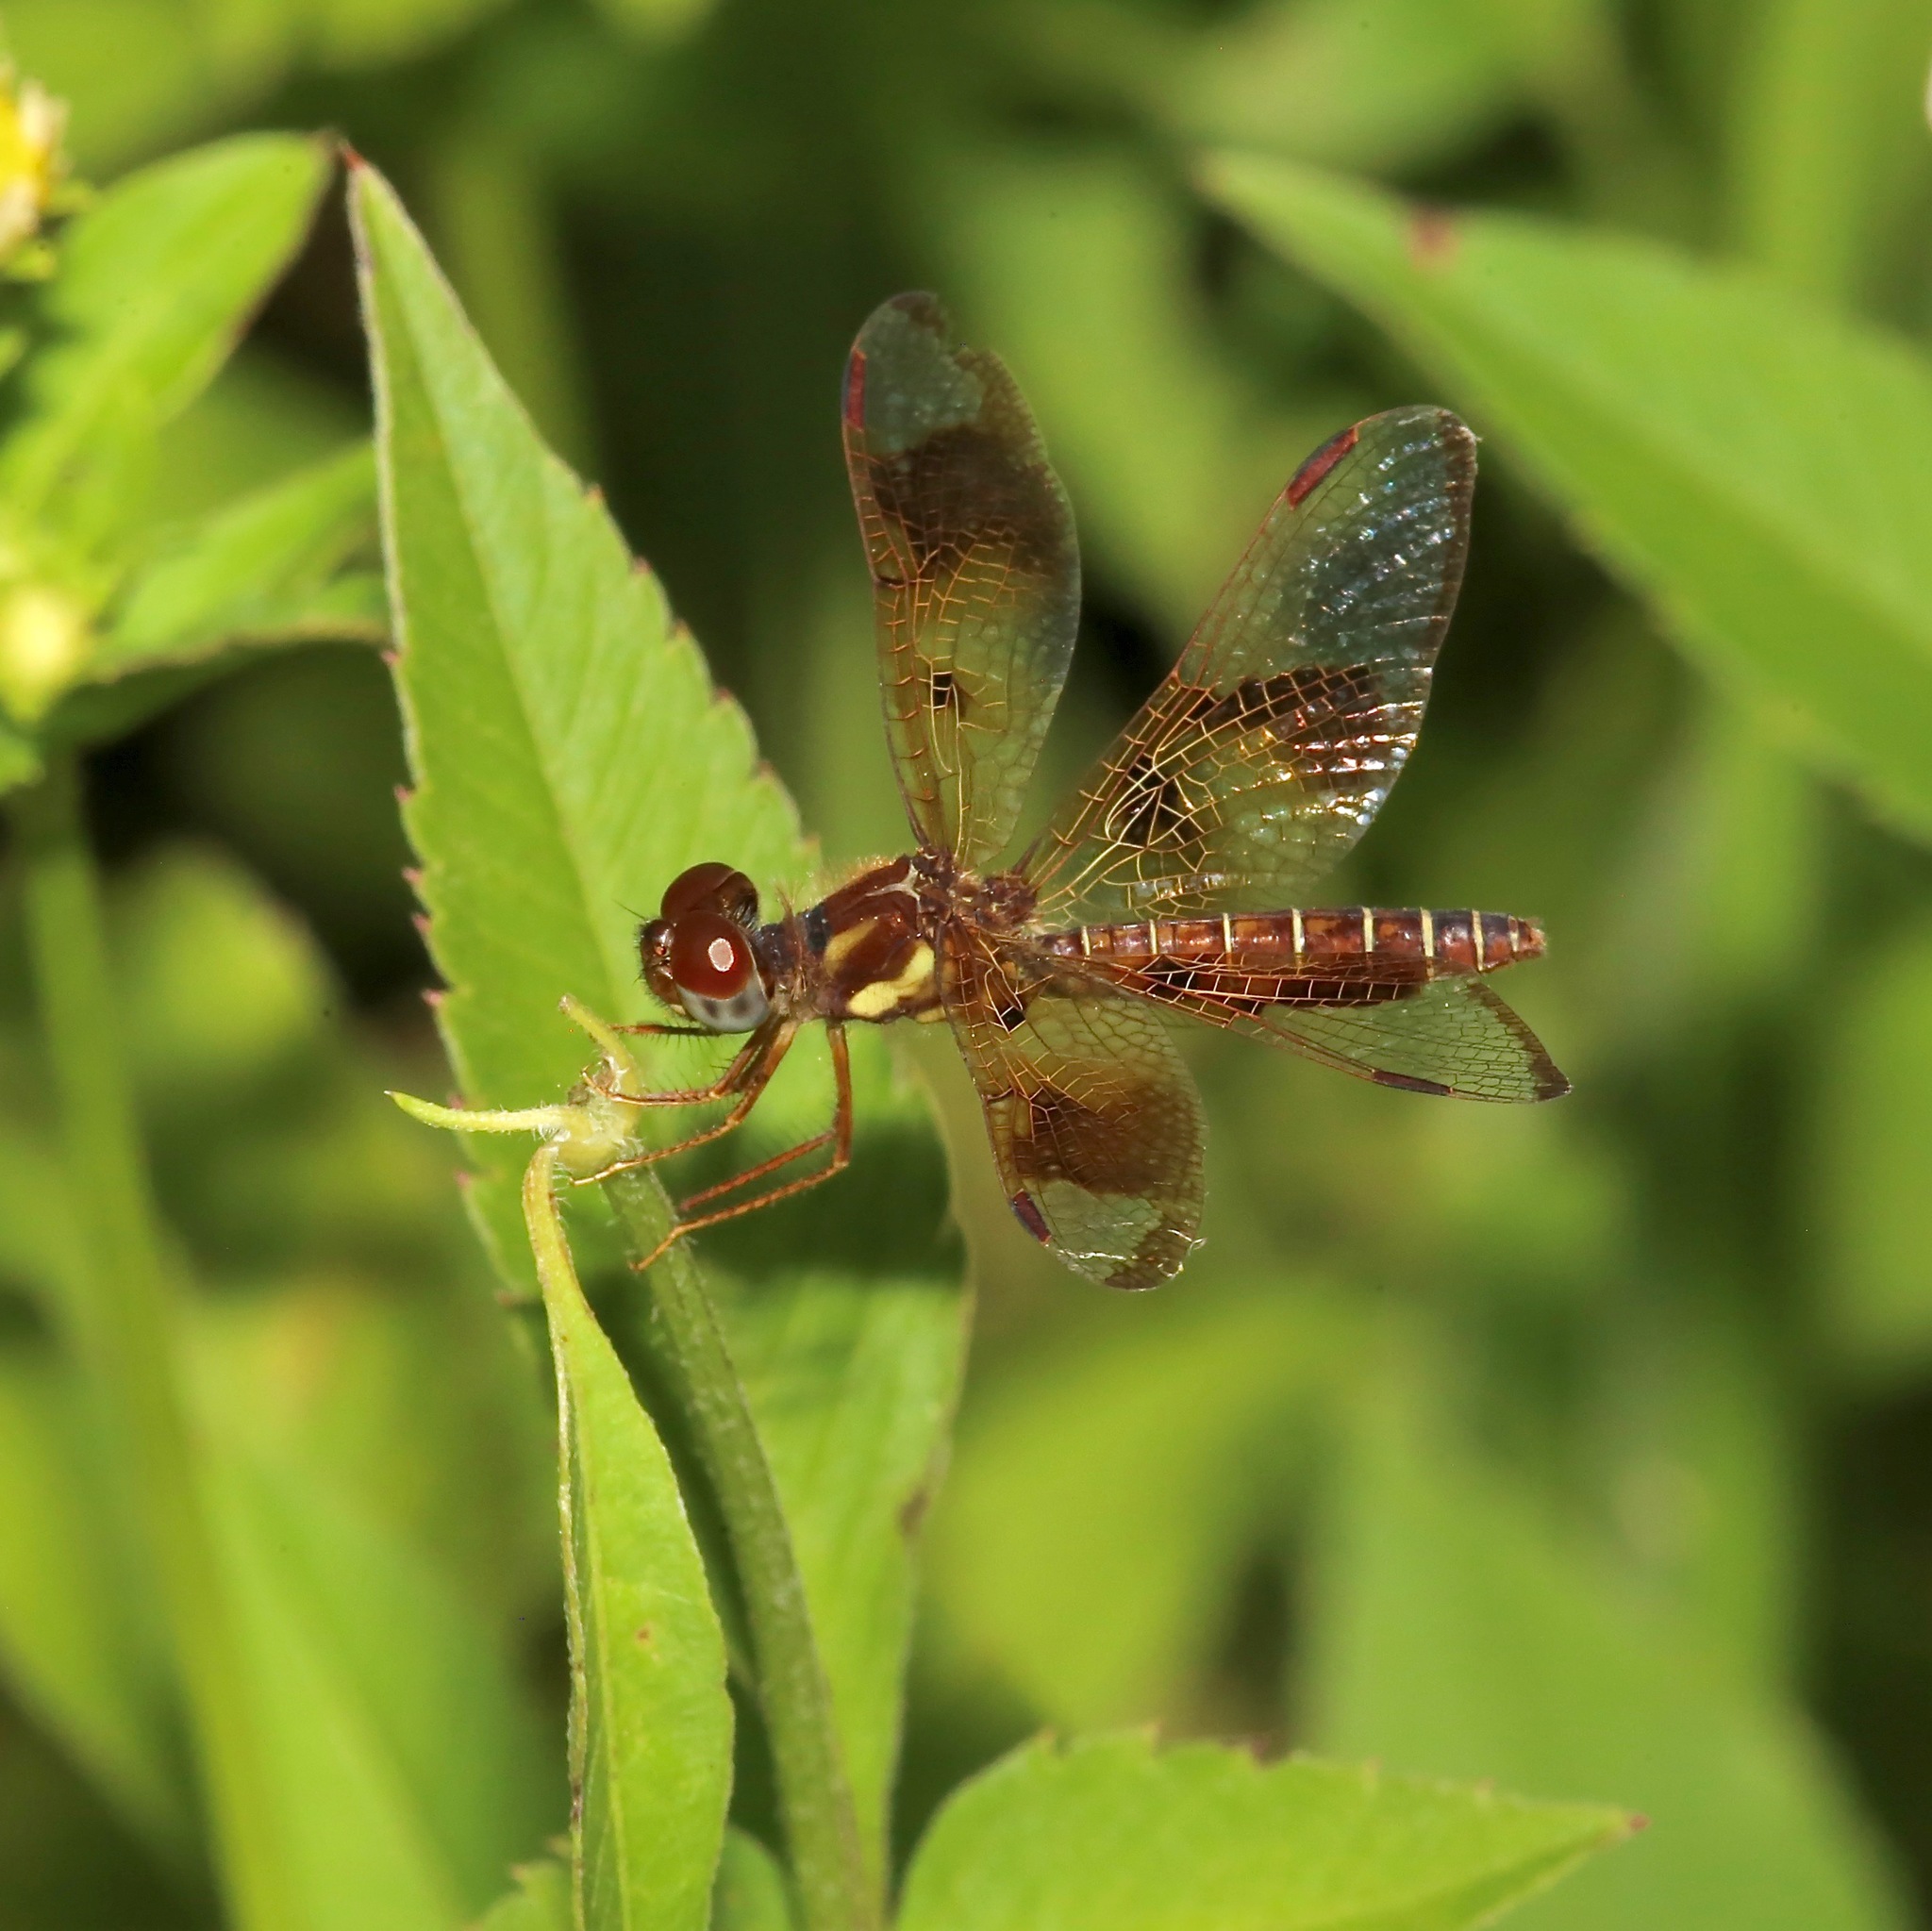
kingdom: Animalia
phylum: Arthropoda
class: Insecta
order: Odonata
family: Libellulidae
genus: Perithemis
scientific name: Perithemis tenera
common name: Eastern amberwing
